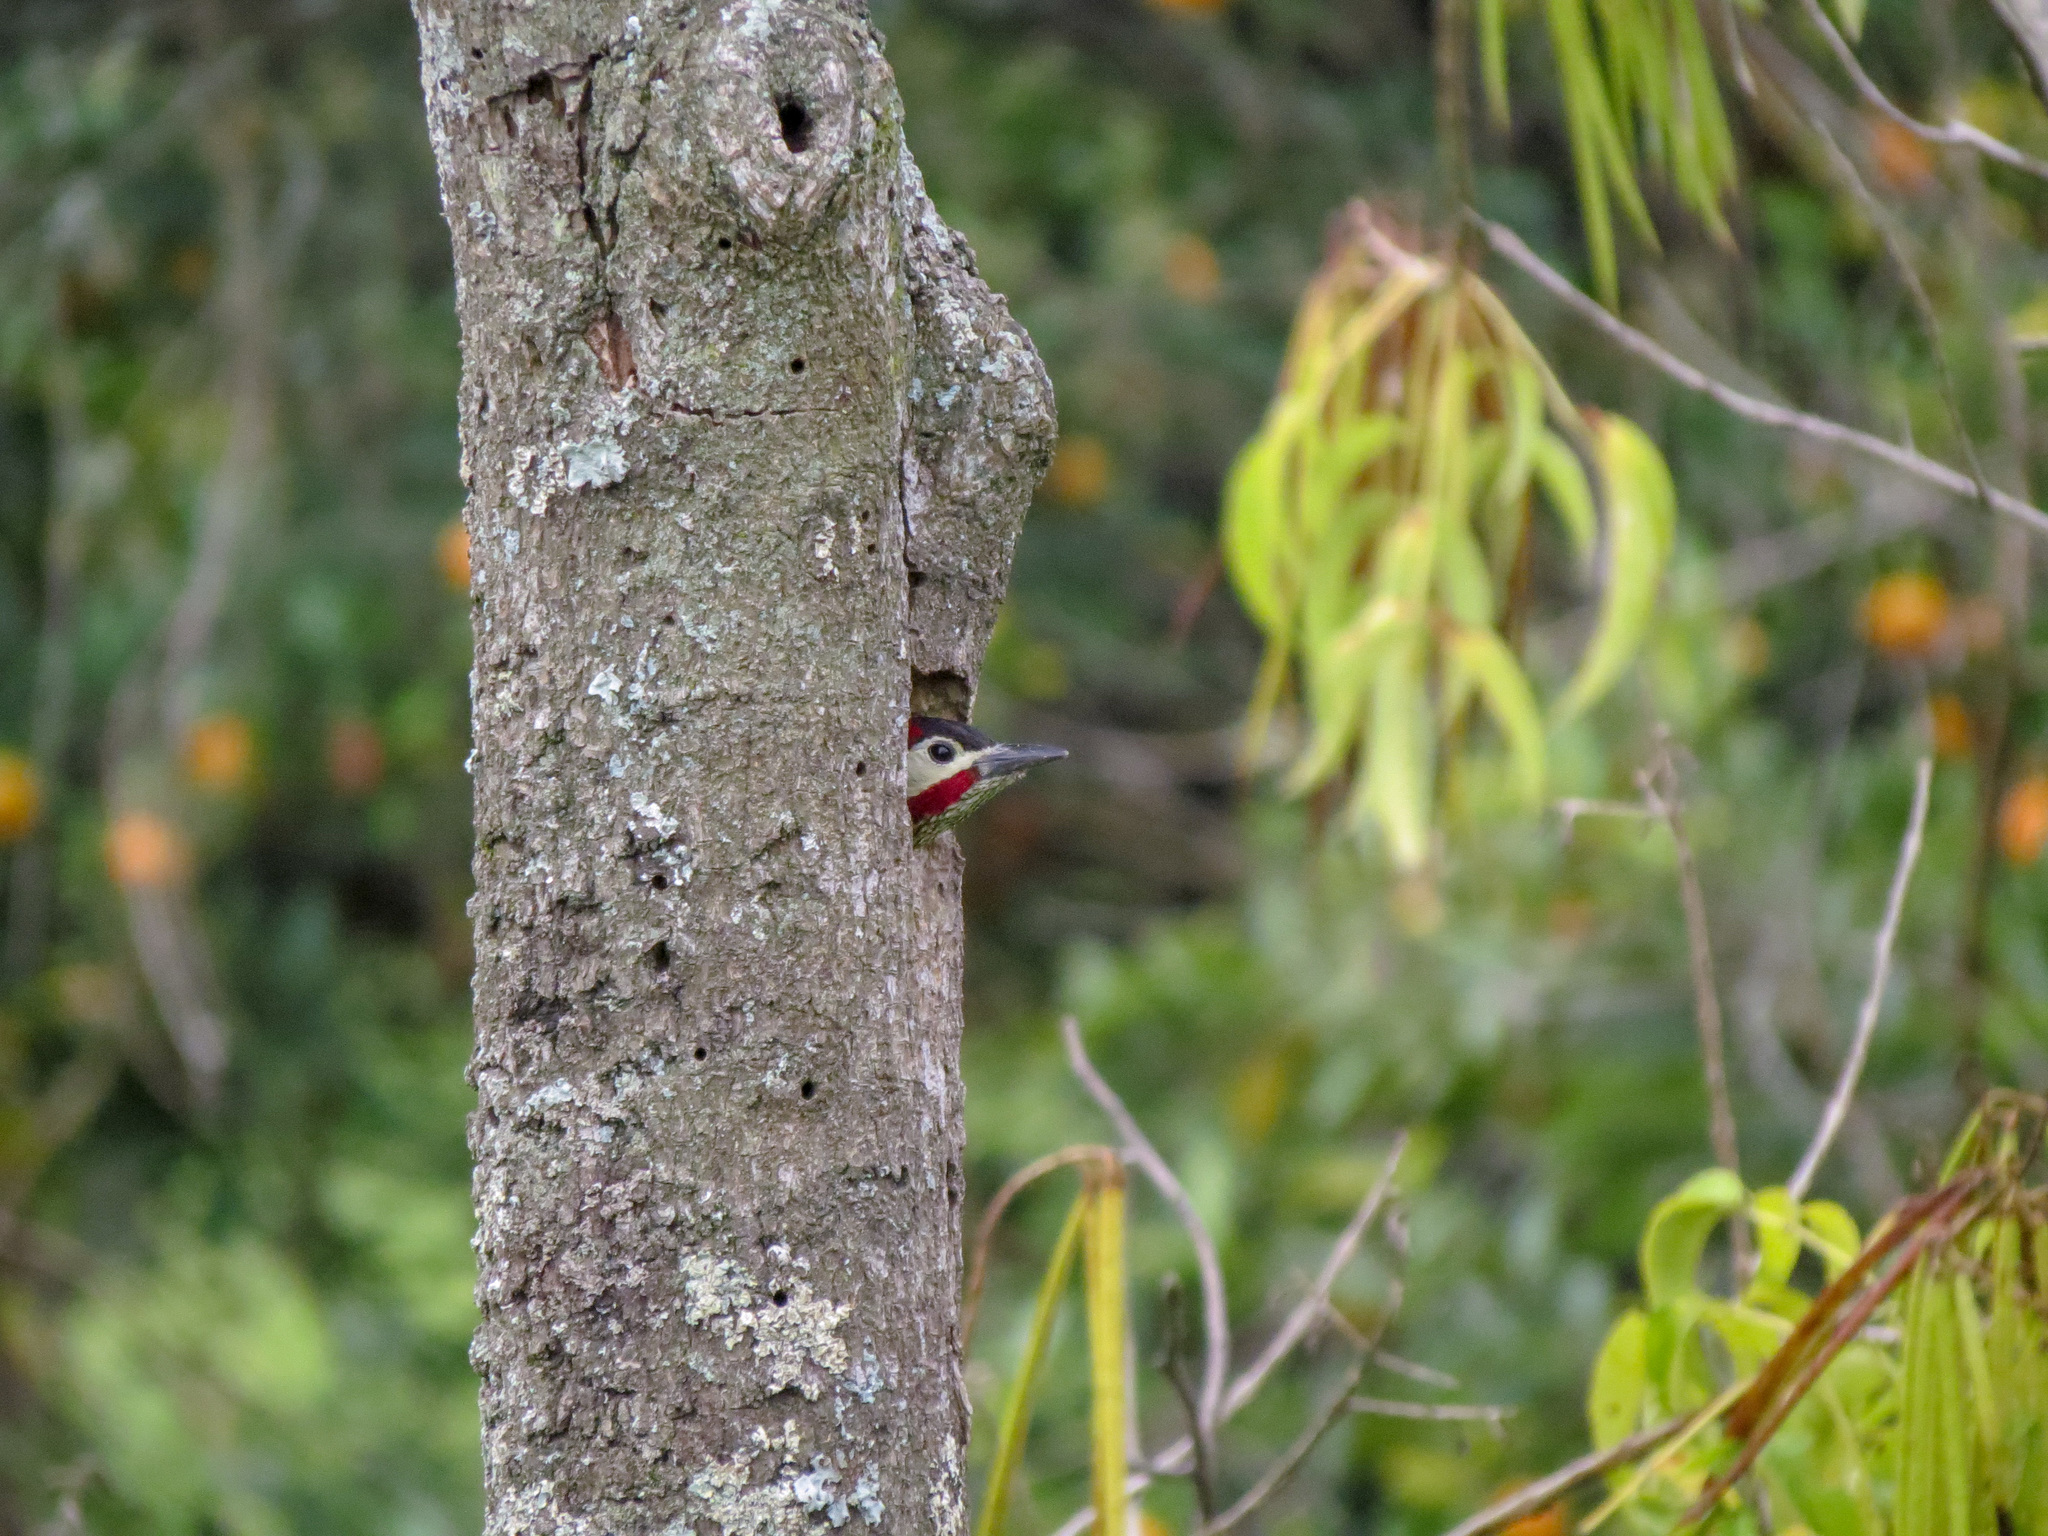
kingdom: Animalia
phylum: Chordata
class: Aves
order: Piciformes
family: Picidae
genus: Colaptes
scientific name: Colaptes punctigula
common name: Spot-breasted woodpecker
